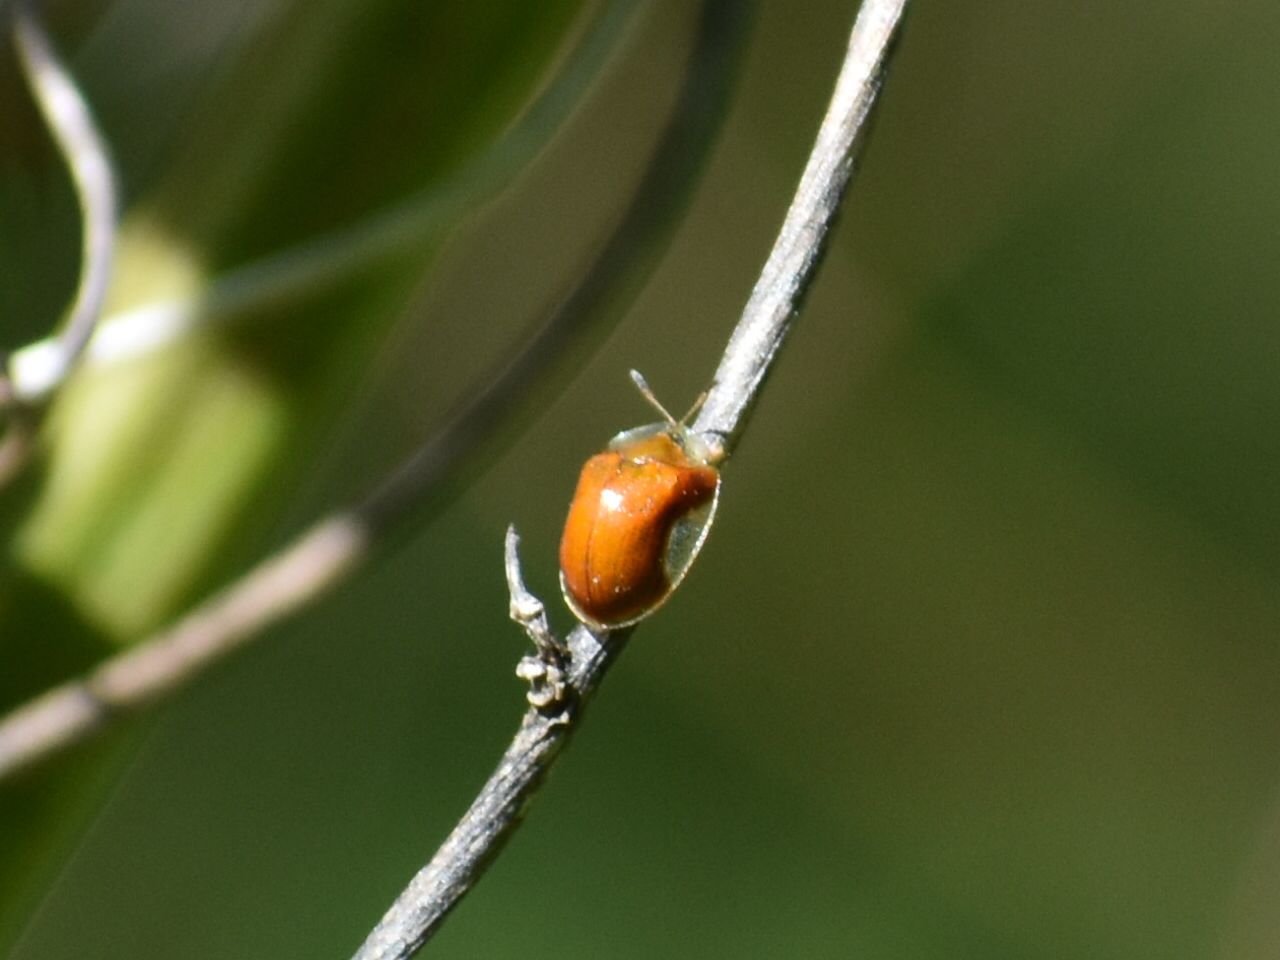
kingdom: Animalia
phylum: Arthropoda
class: Insecta
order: Coleoptera
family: Chrysomelidae
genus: Charidotella
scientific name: Charidotella purpurata
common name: Small orange tortoise beetle
